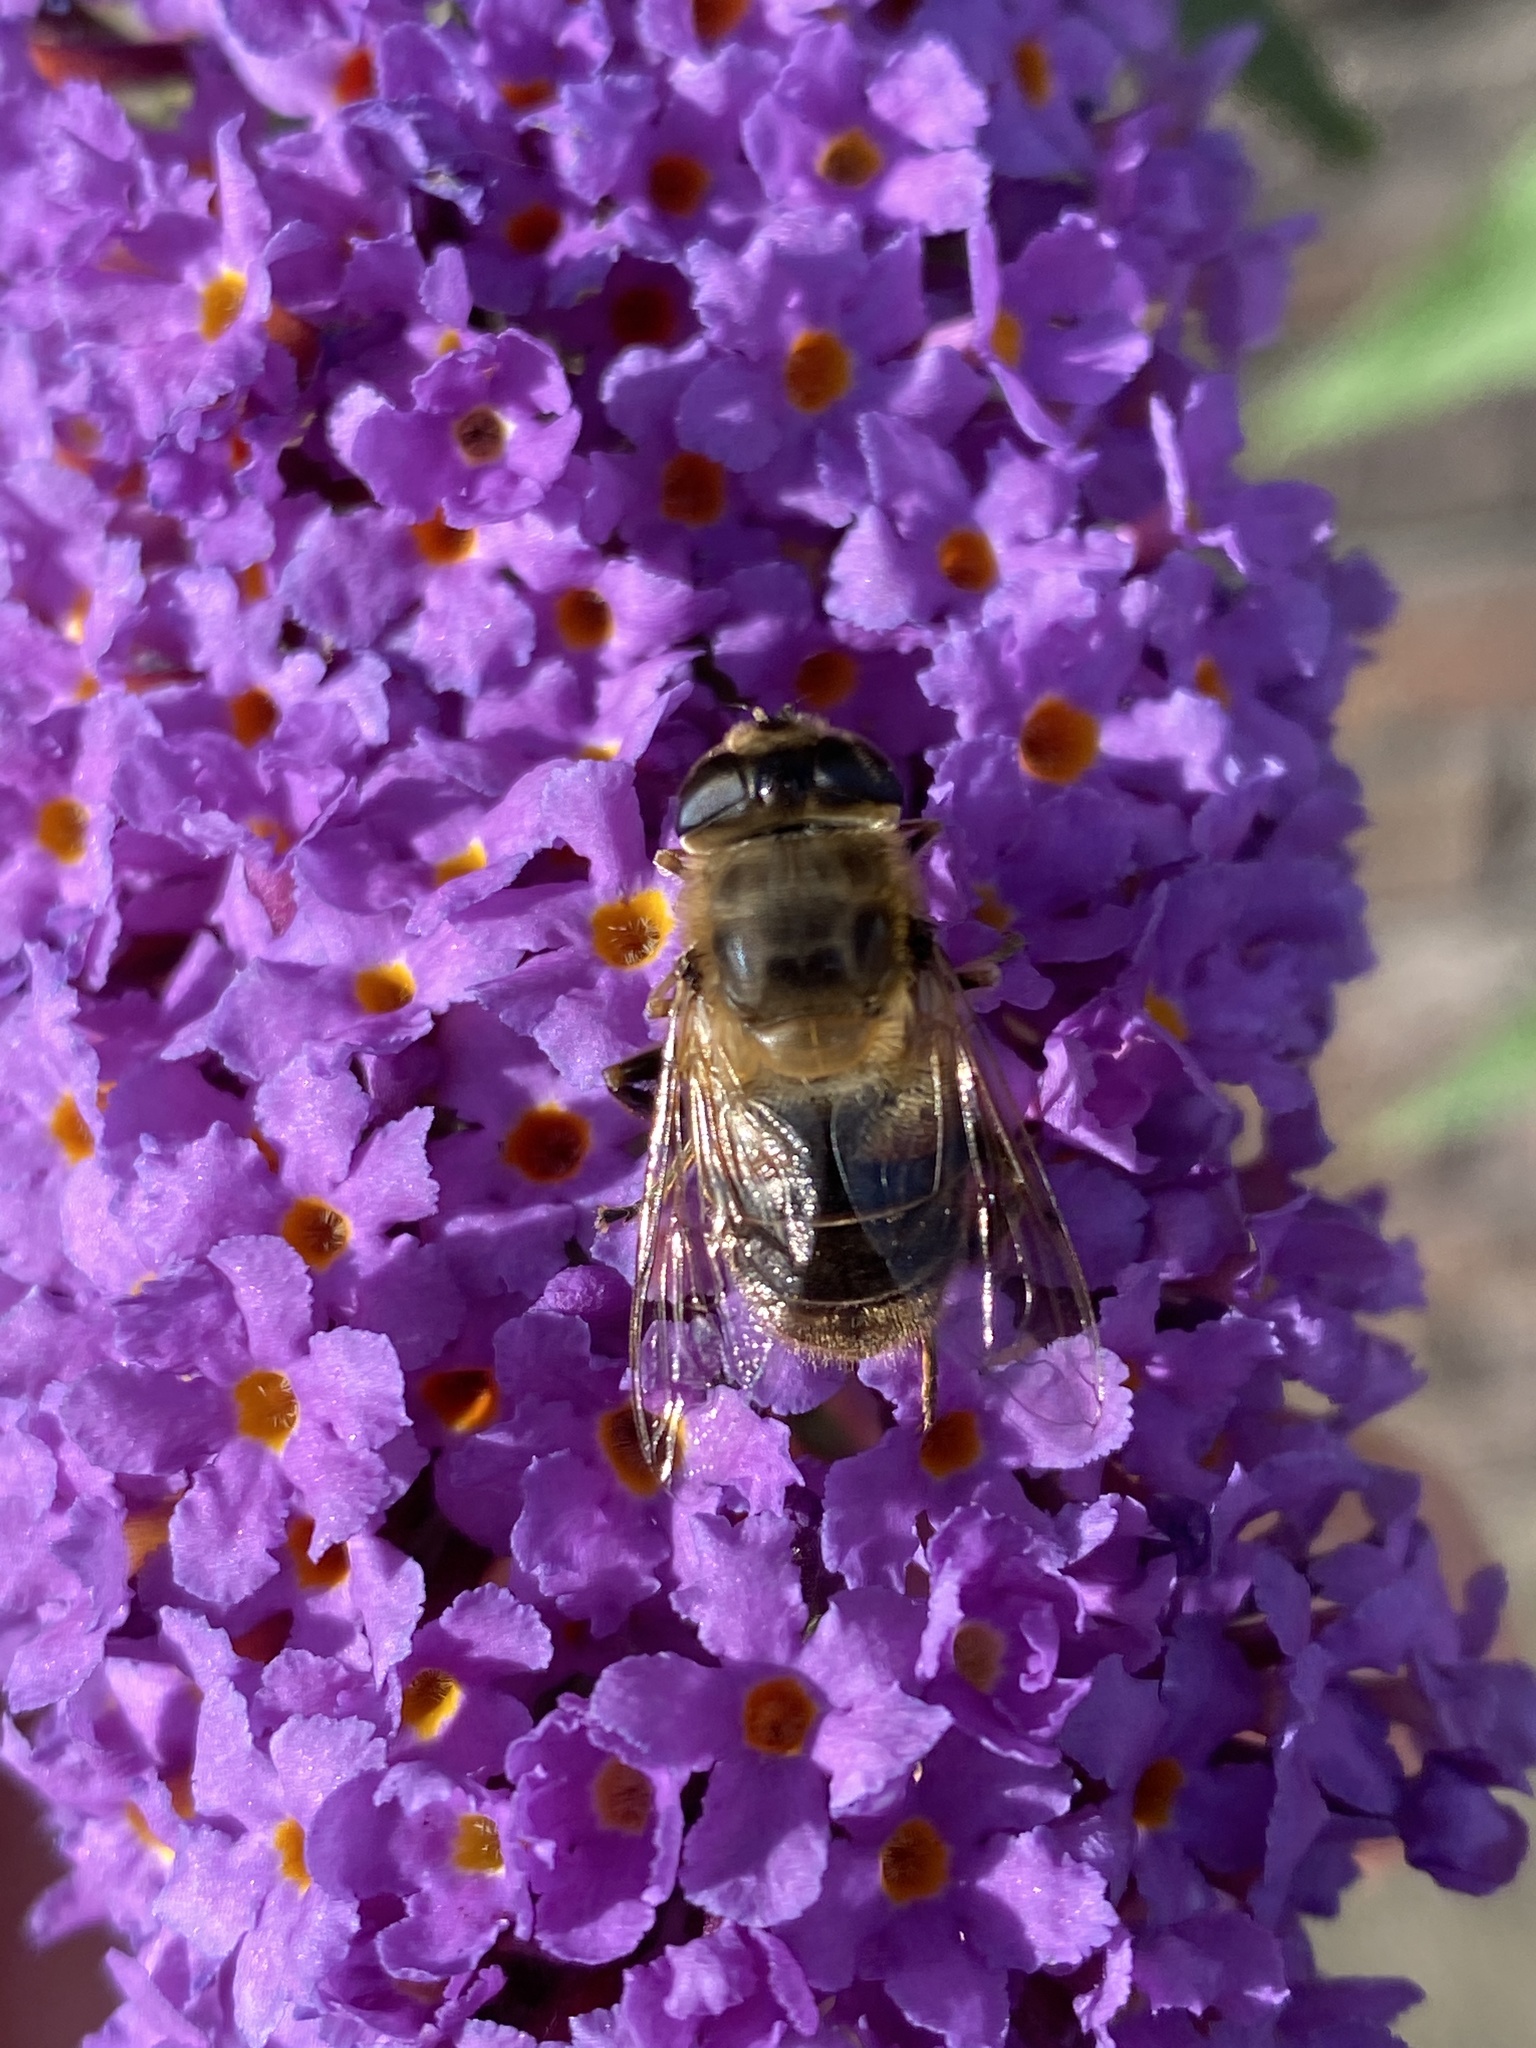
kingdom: Animalia
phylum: Arthropoda
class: Insecta
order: Diptera
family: Syrphidae
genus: Eristalis
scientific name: Eristalis tenax
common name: Drone fly
